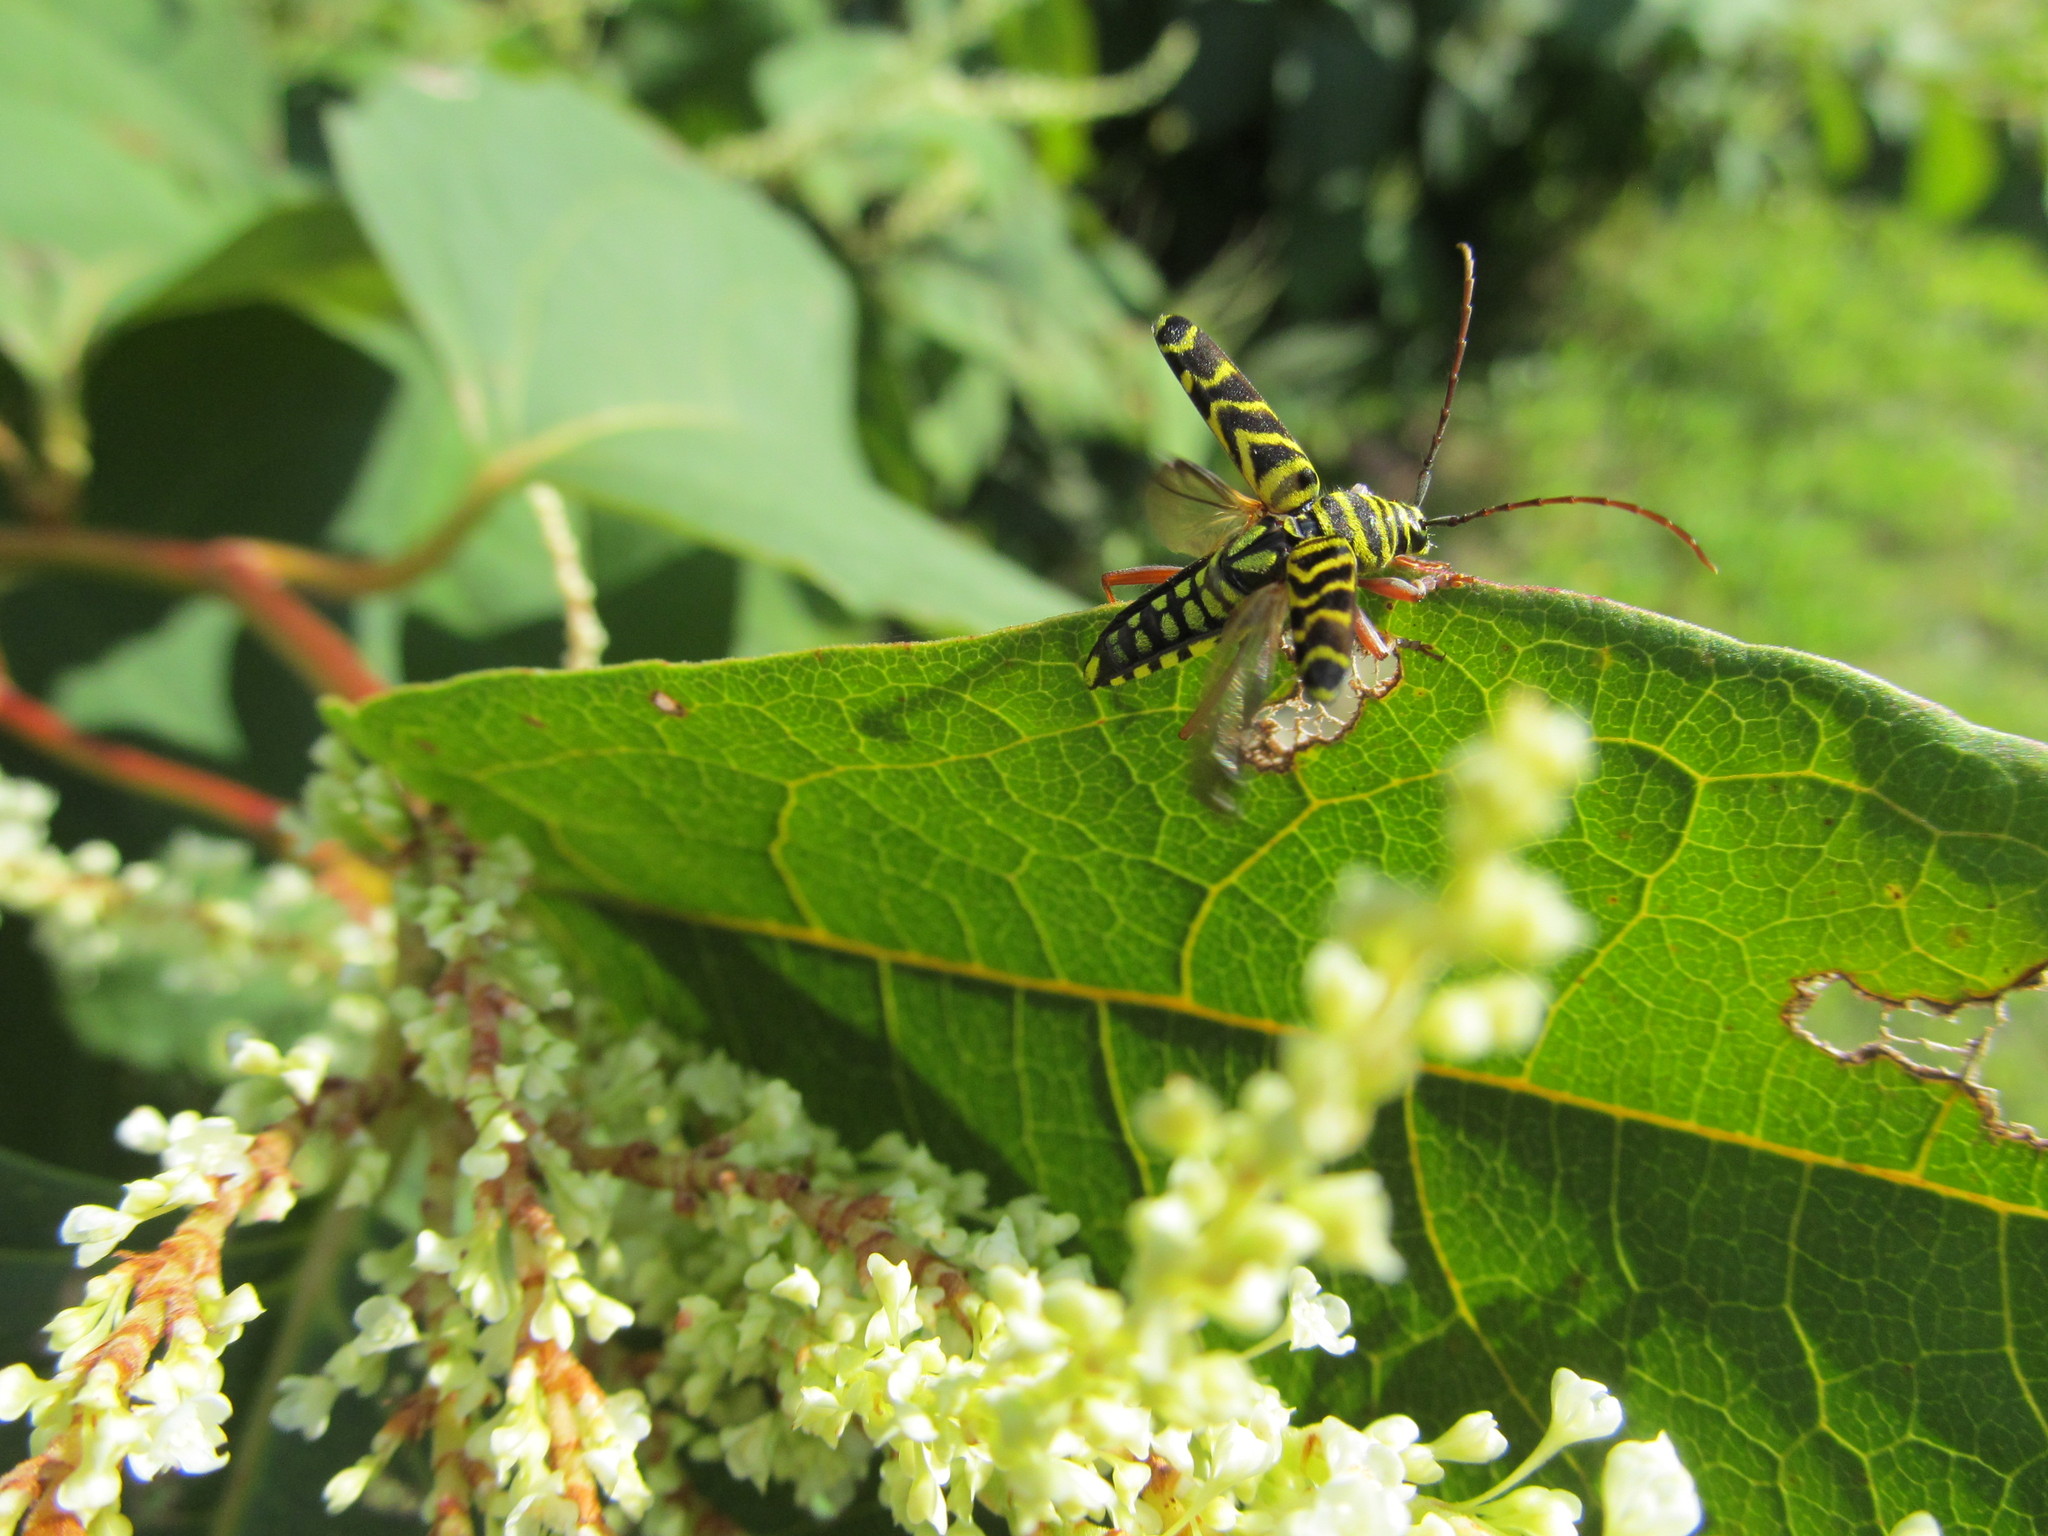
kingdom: Animalia
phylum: Arthropoda
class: Insecta
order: Coleoptera
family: Cerambycidae
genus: Megacyllene
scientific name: Megacyllene robiniae
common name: Locust borer
